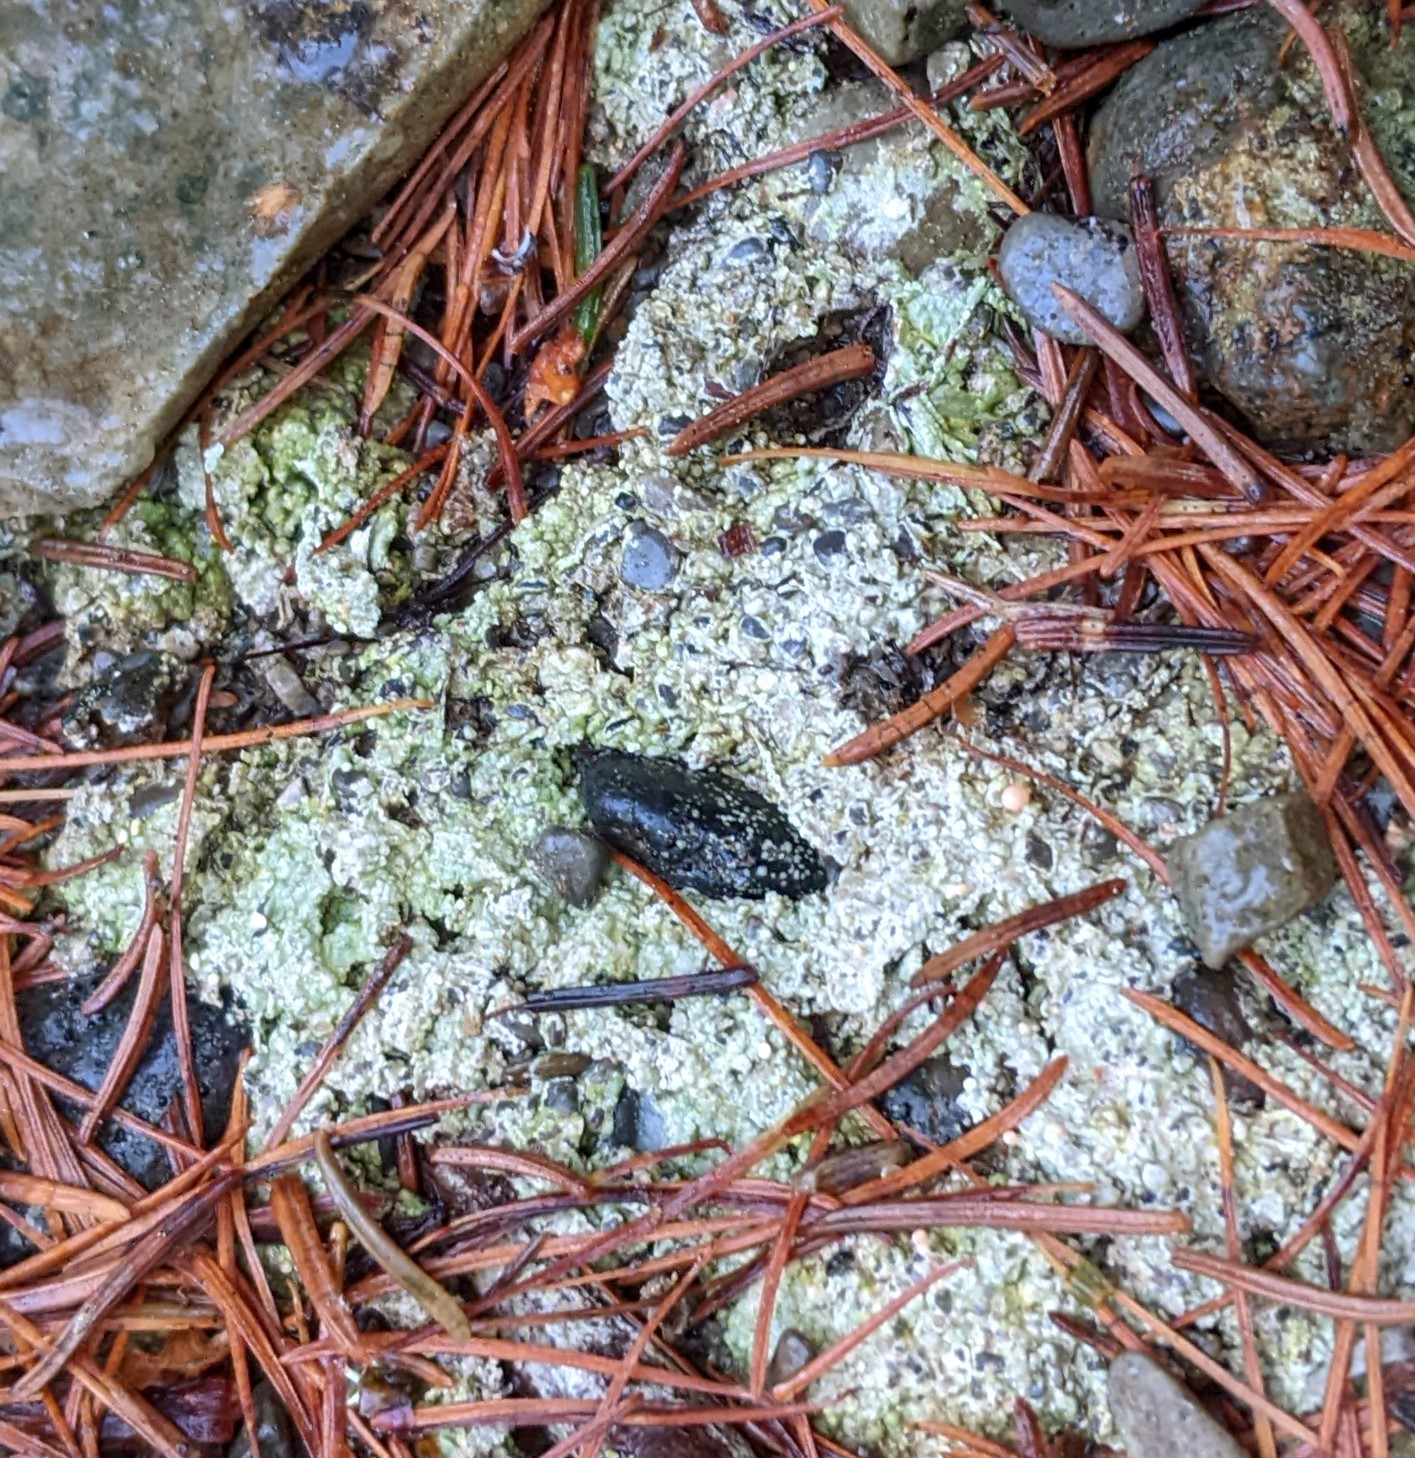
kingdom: Fungi
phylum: Ascomycota
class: Lecanoromycetes
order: Pertusariales
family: Icmadophilaceae
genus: Dibaeis
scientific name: Dibaeis baeomyces
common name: Pink earth lichen
